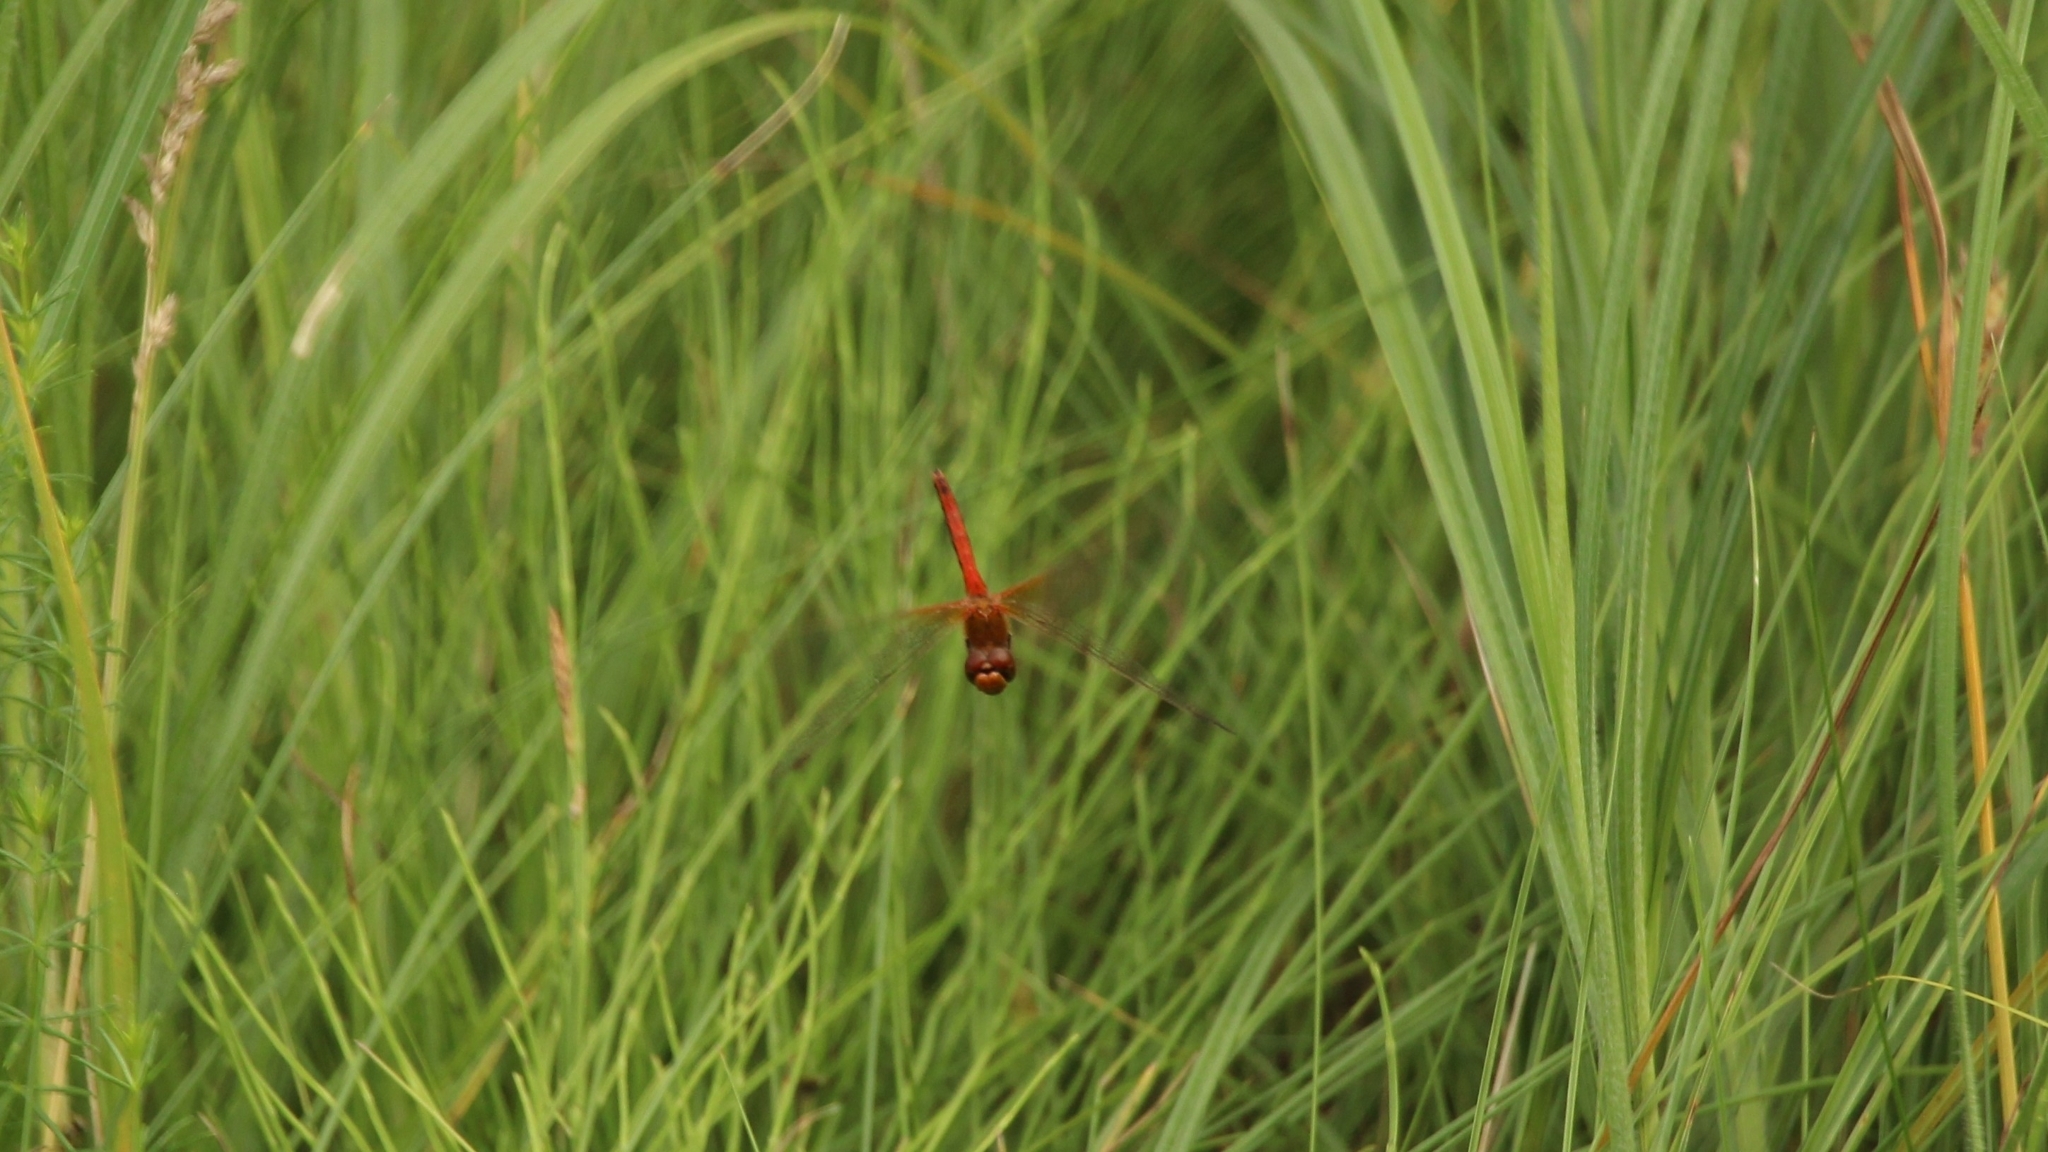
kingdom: Animalia
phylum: Arthropoda
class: Insecta
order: Odonata
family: Libellulidae
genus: Sympetrum
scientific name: Sympetrum flaveolum
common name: Yellow-winged darter
